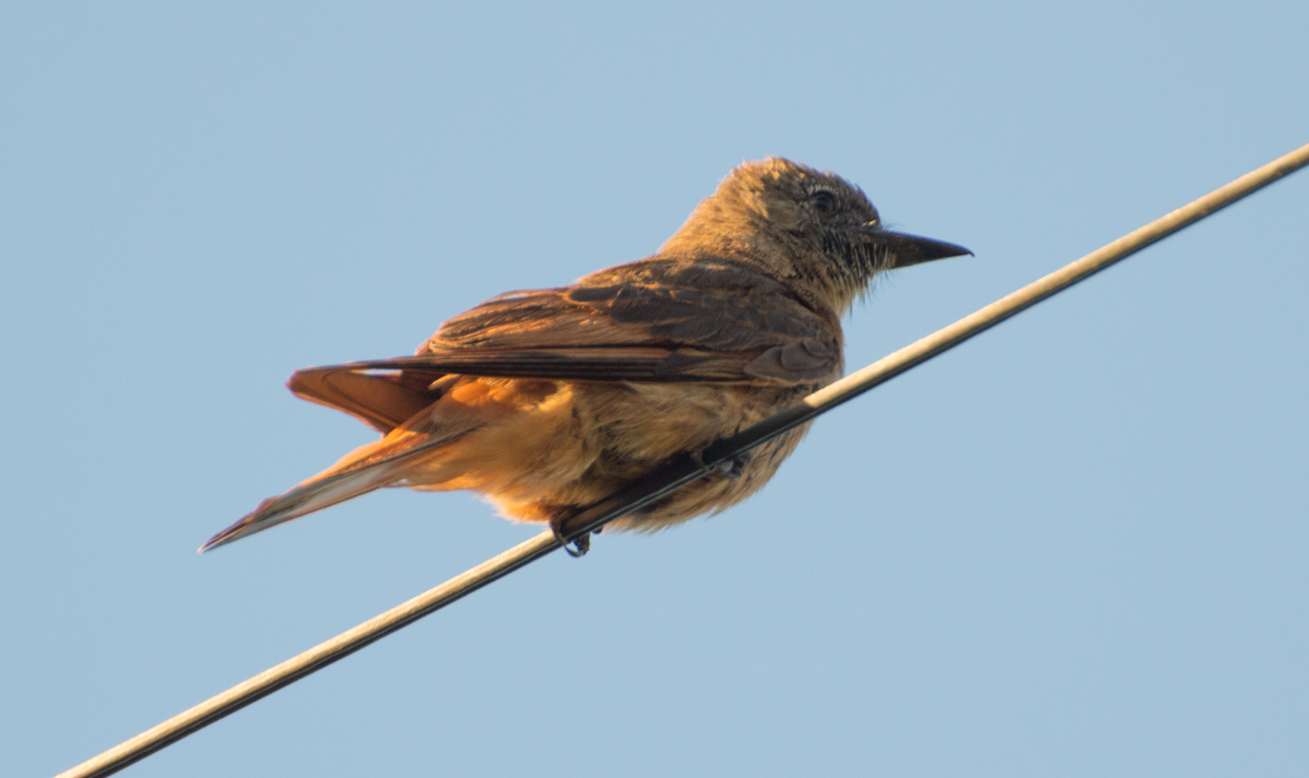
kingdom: Animalia
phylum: Chordata
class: Aves
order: Passeriformes
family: Tyrannidae
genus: Hirundinea
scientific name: Hirundinea ferruginea
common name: Cliff flycatcher
